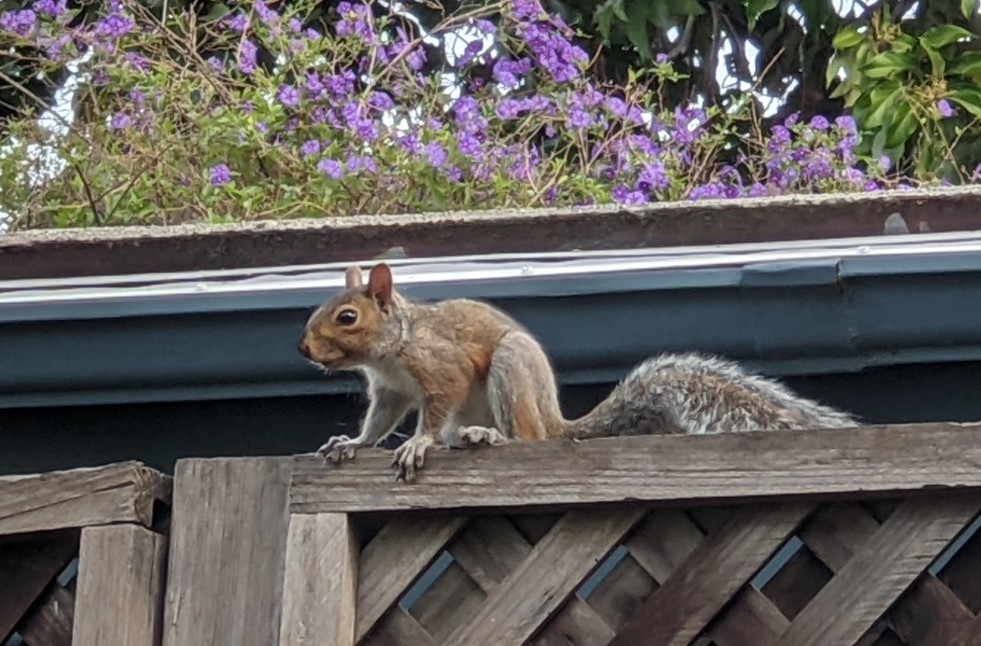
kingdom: Animalia
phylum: Chordata
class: Mammalia
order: Rodentia
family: Sciuridae
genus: Sciurus
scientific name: Sciurus carolinensis
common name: Eastern gray squirrel
